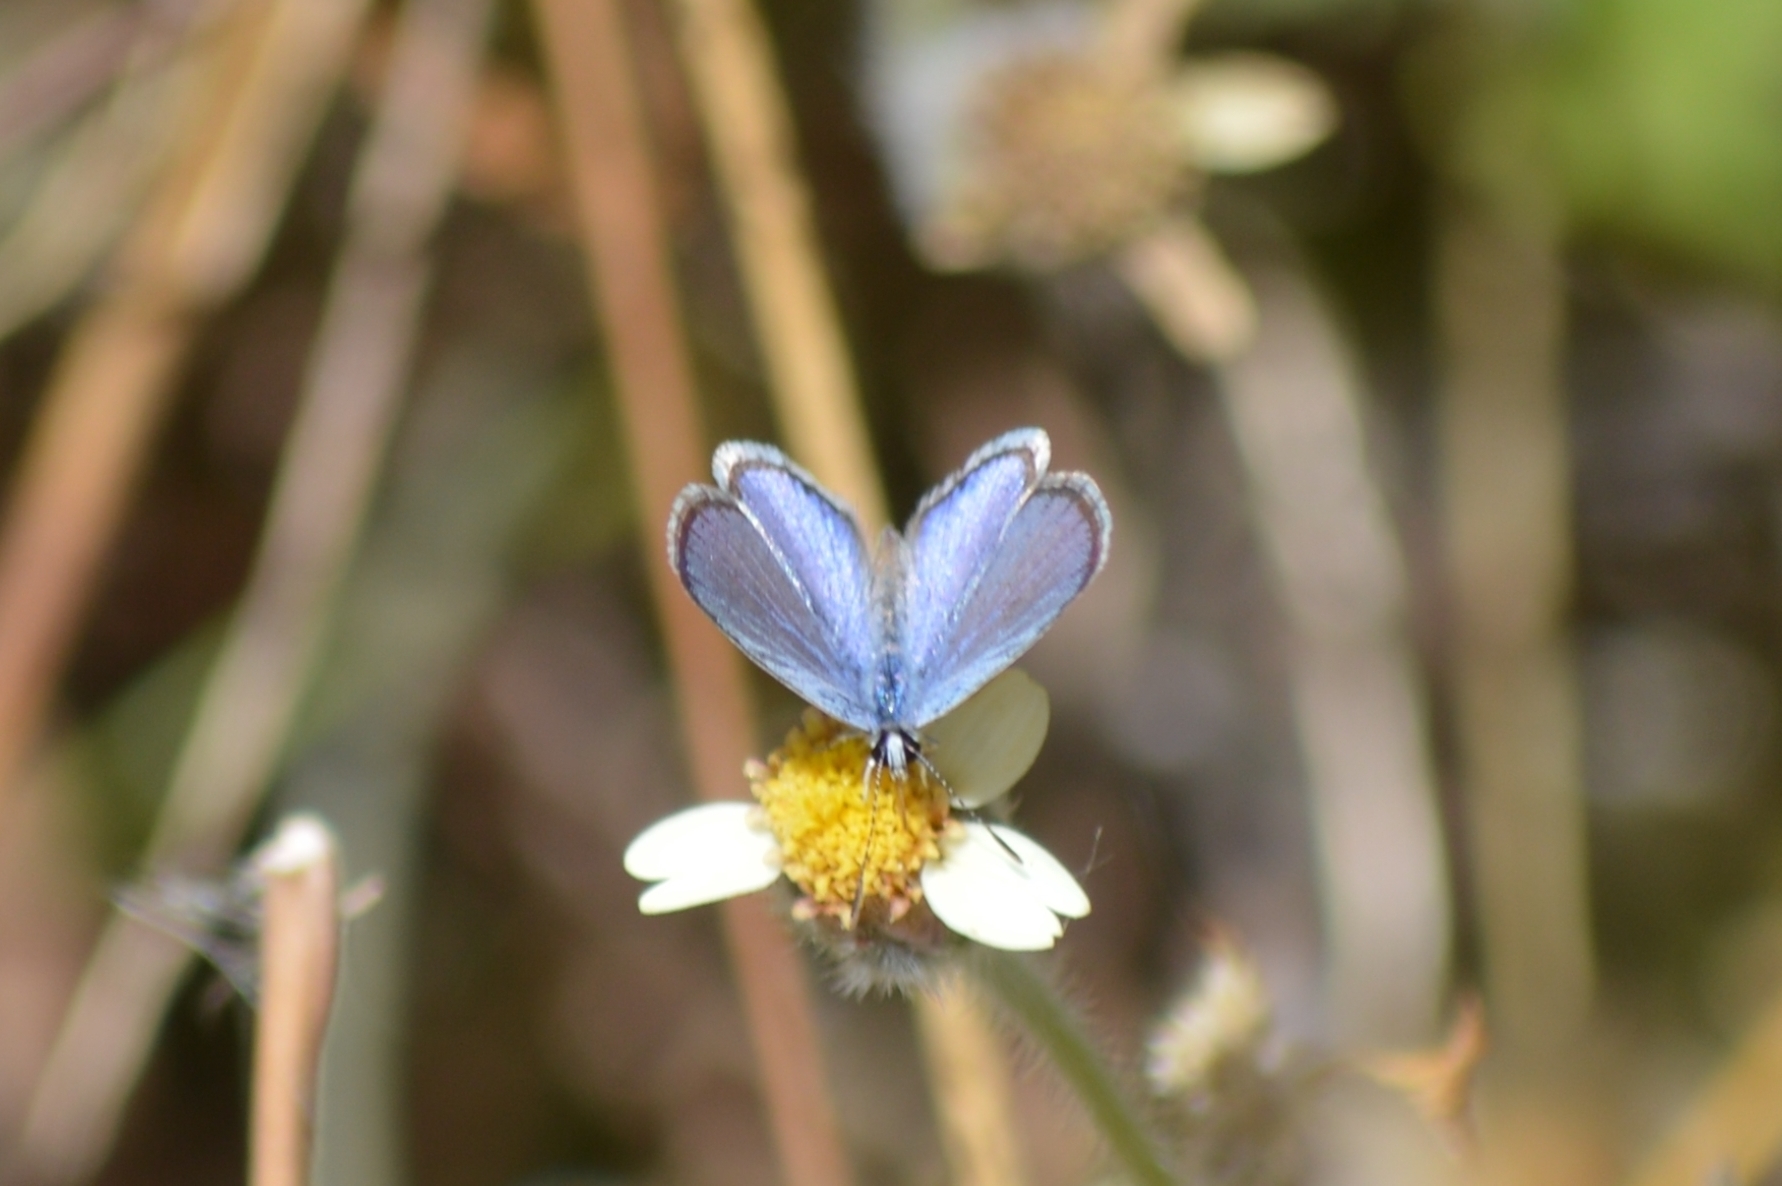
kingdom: Animalia
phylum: Arthropoda
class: Insecta
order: Lepidoptera
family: Lycaenidae
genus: Hemiargus
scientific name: Hemiargus hanno
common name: Common blue
